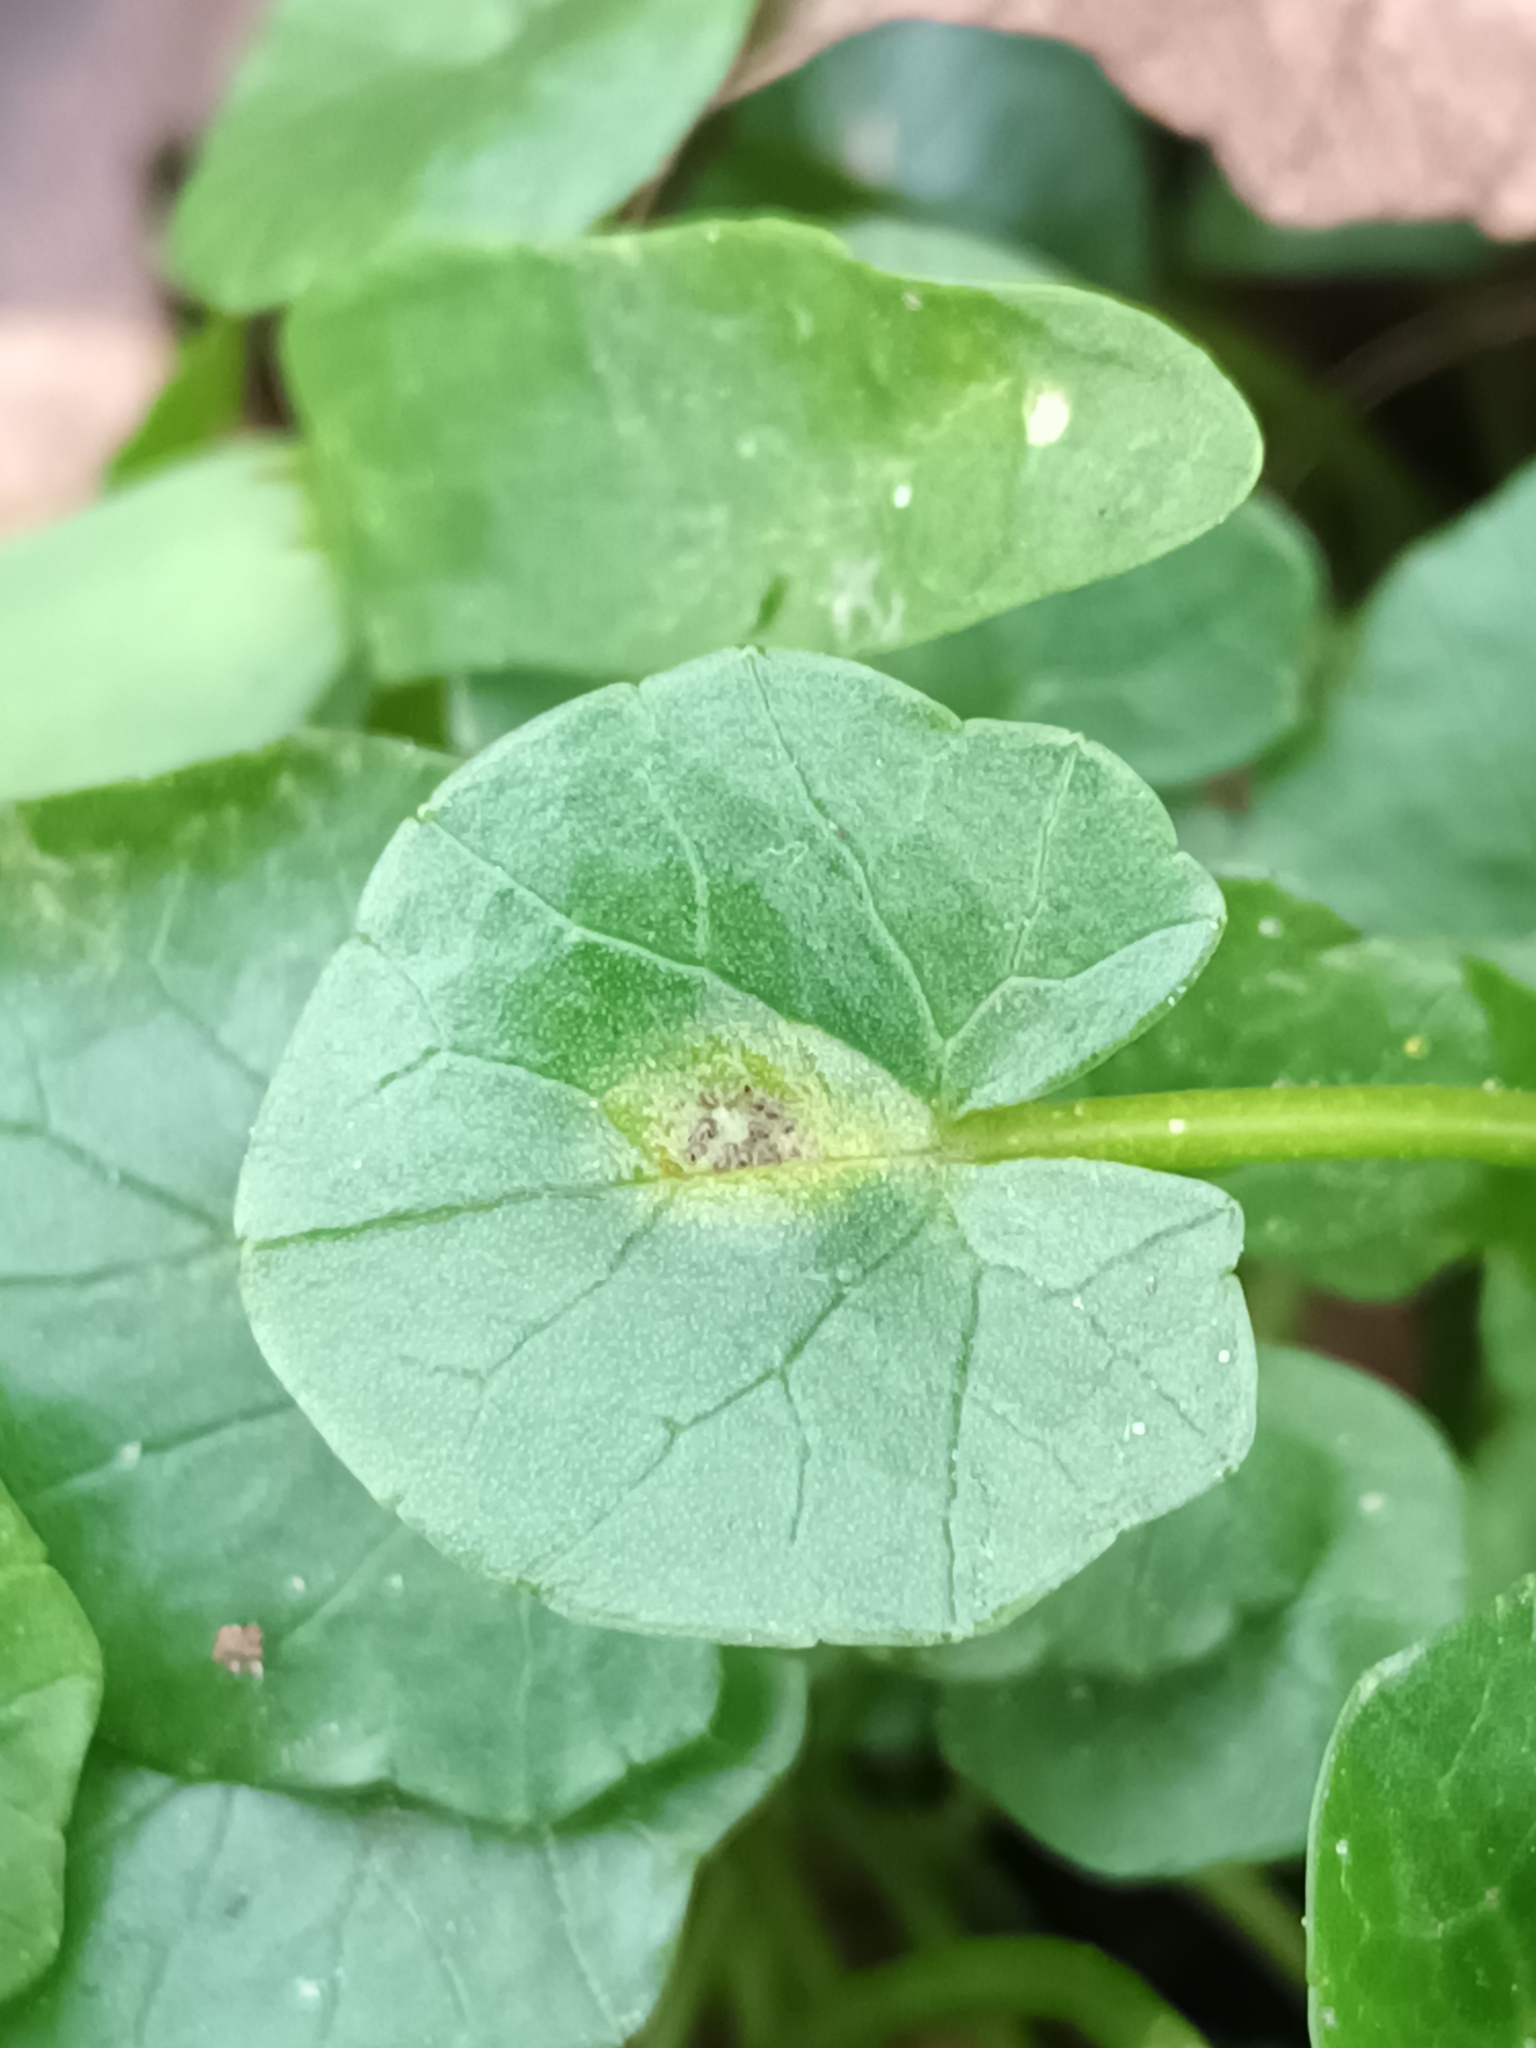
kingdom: Fungi
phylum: Basidiomycota
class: Pucciniomycetes
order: Pucciniales
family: Pucciniaceae
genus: Uromyces
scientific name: Uromyces ficariae
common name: Bitter chocolate rust
